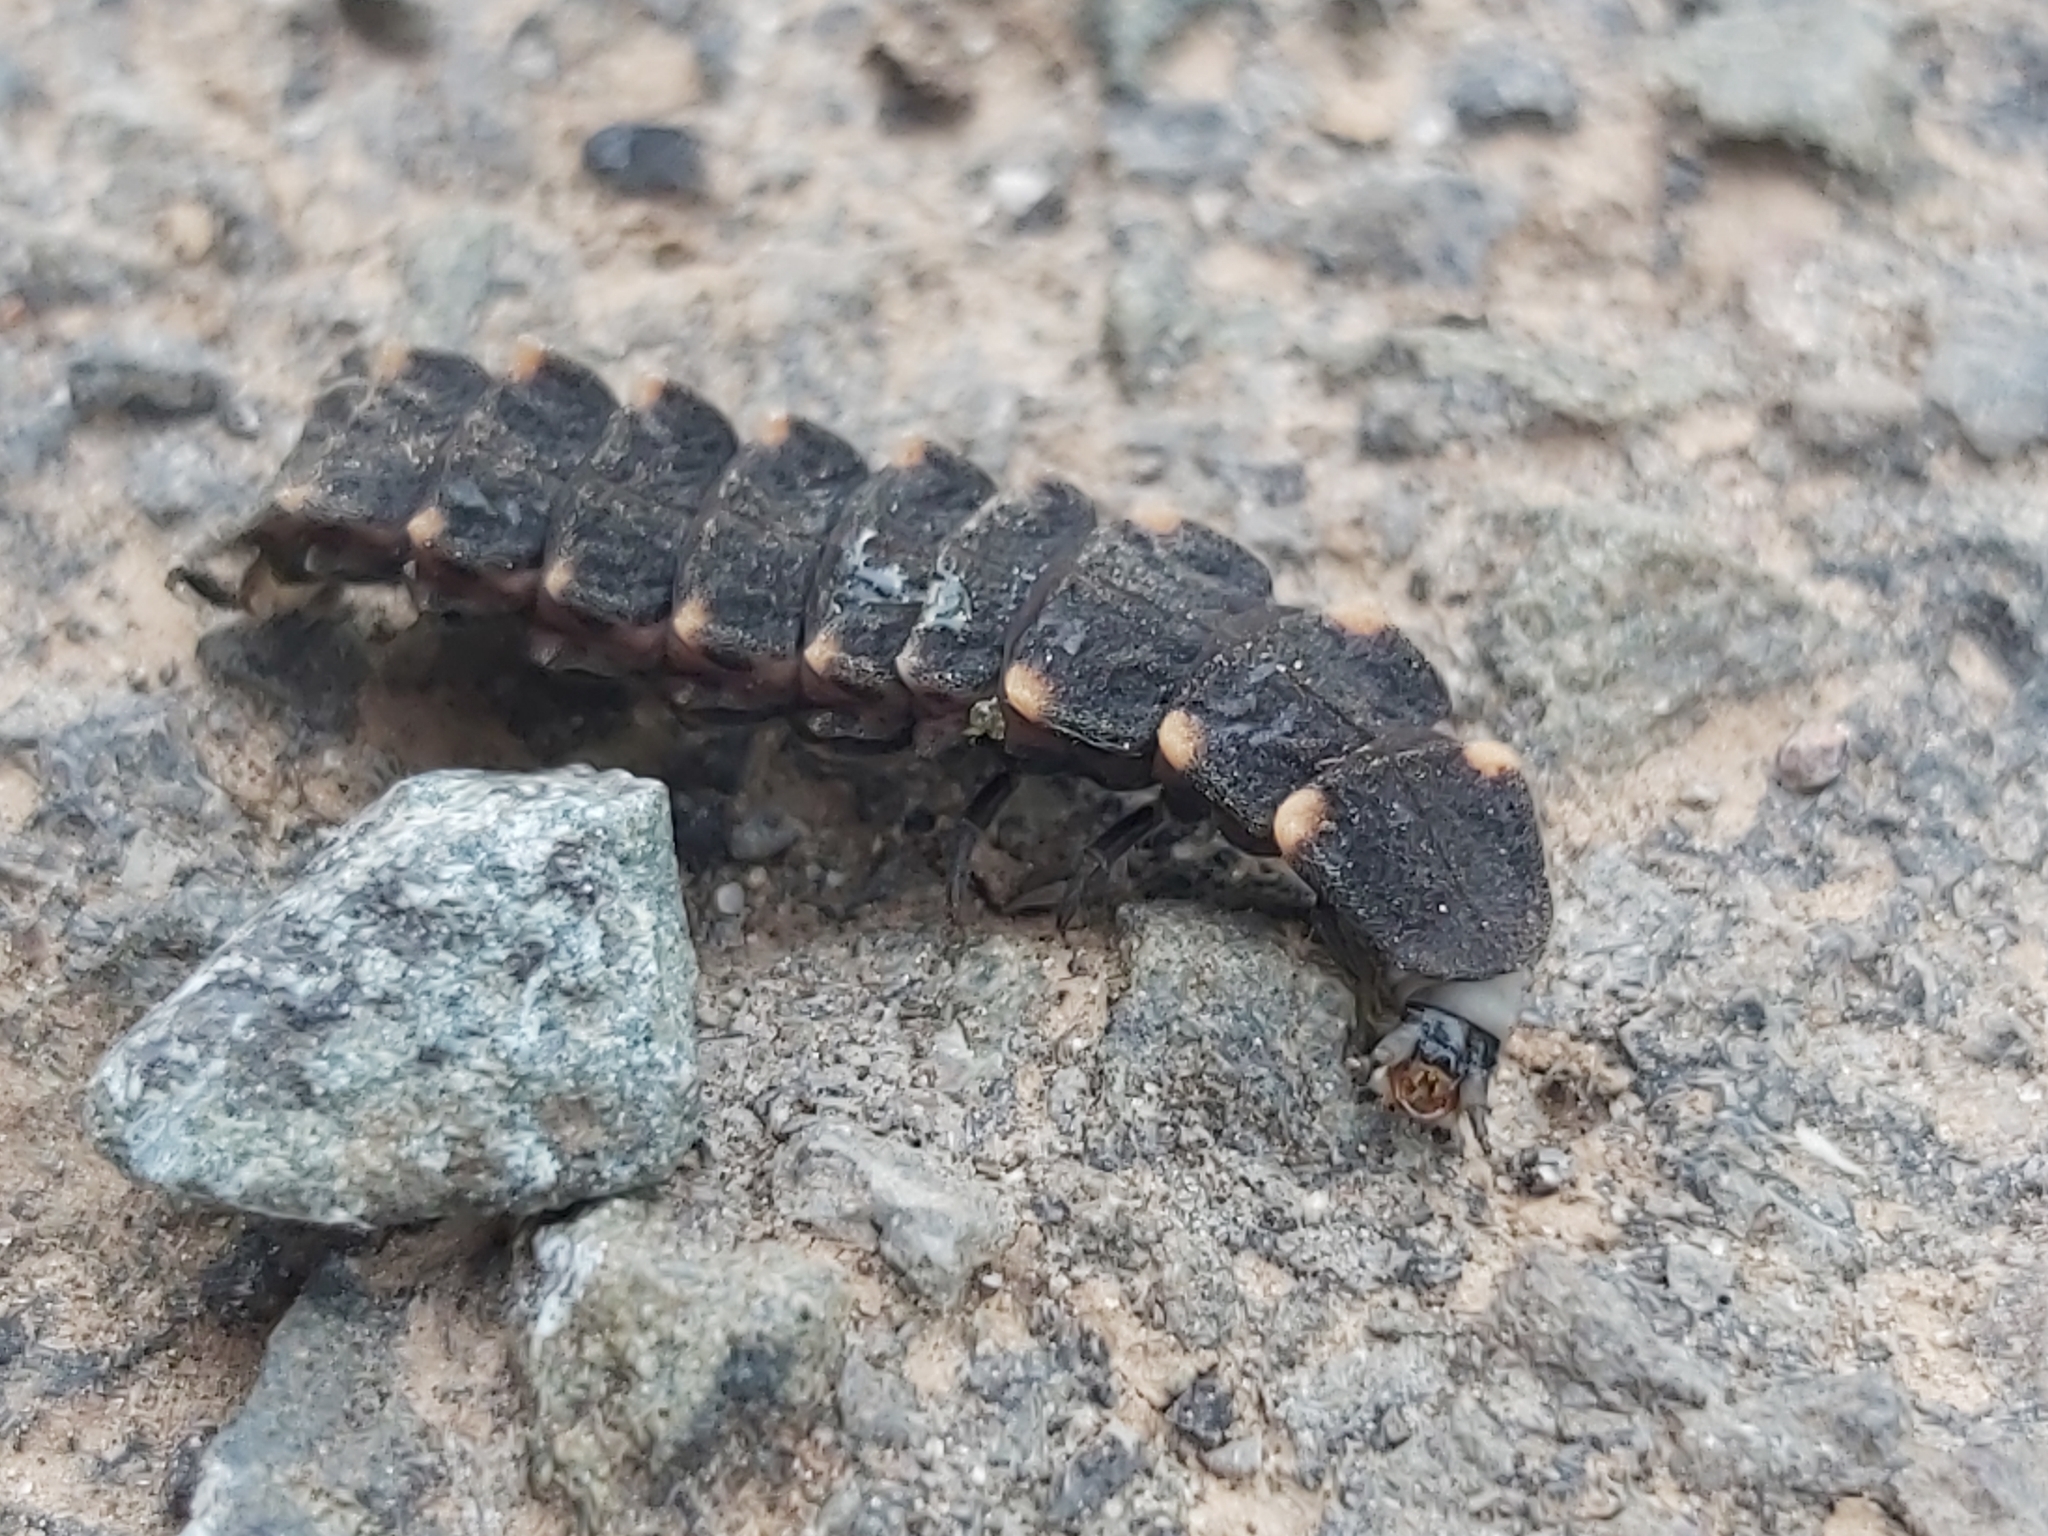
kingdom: Animalia
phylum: Arthropoda
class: Insecta
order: Coleoptera
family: Lampyridae
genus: Lampyris
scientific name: Lampyris noctiluca
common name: Glow-worm
